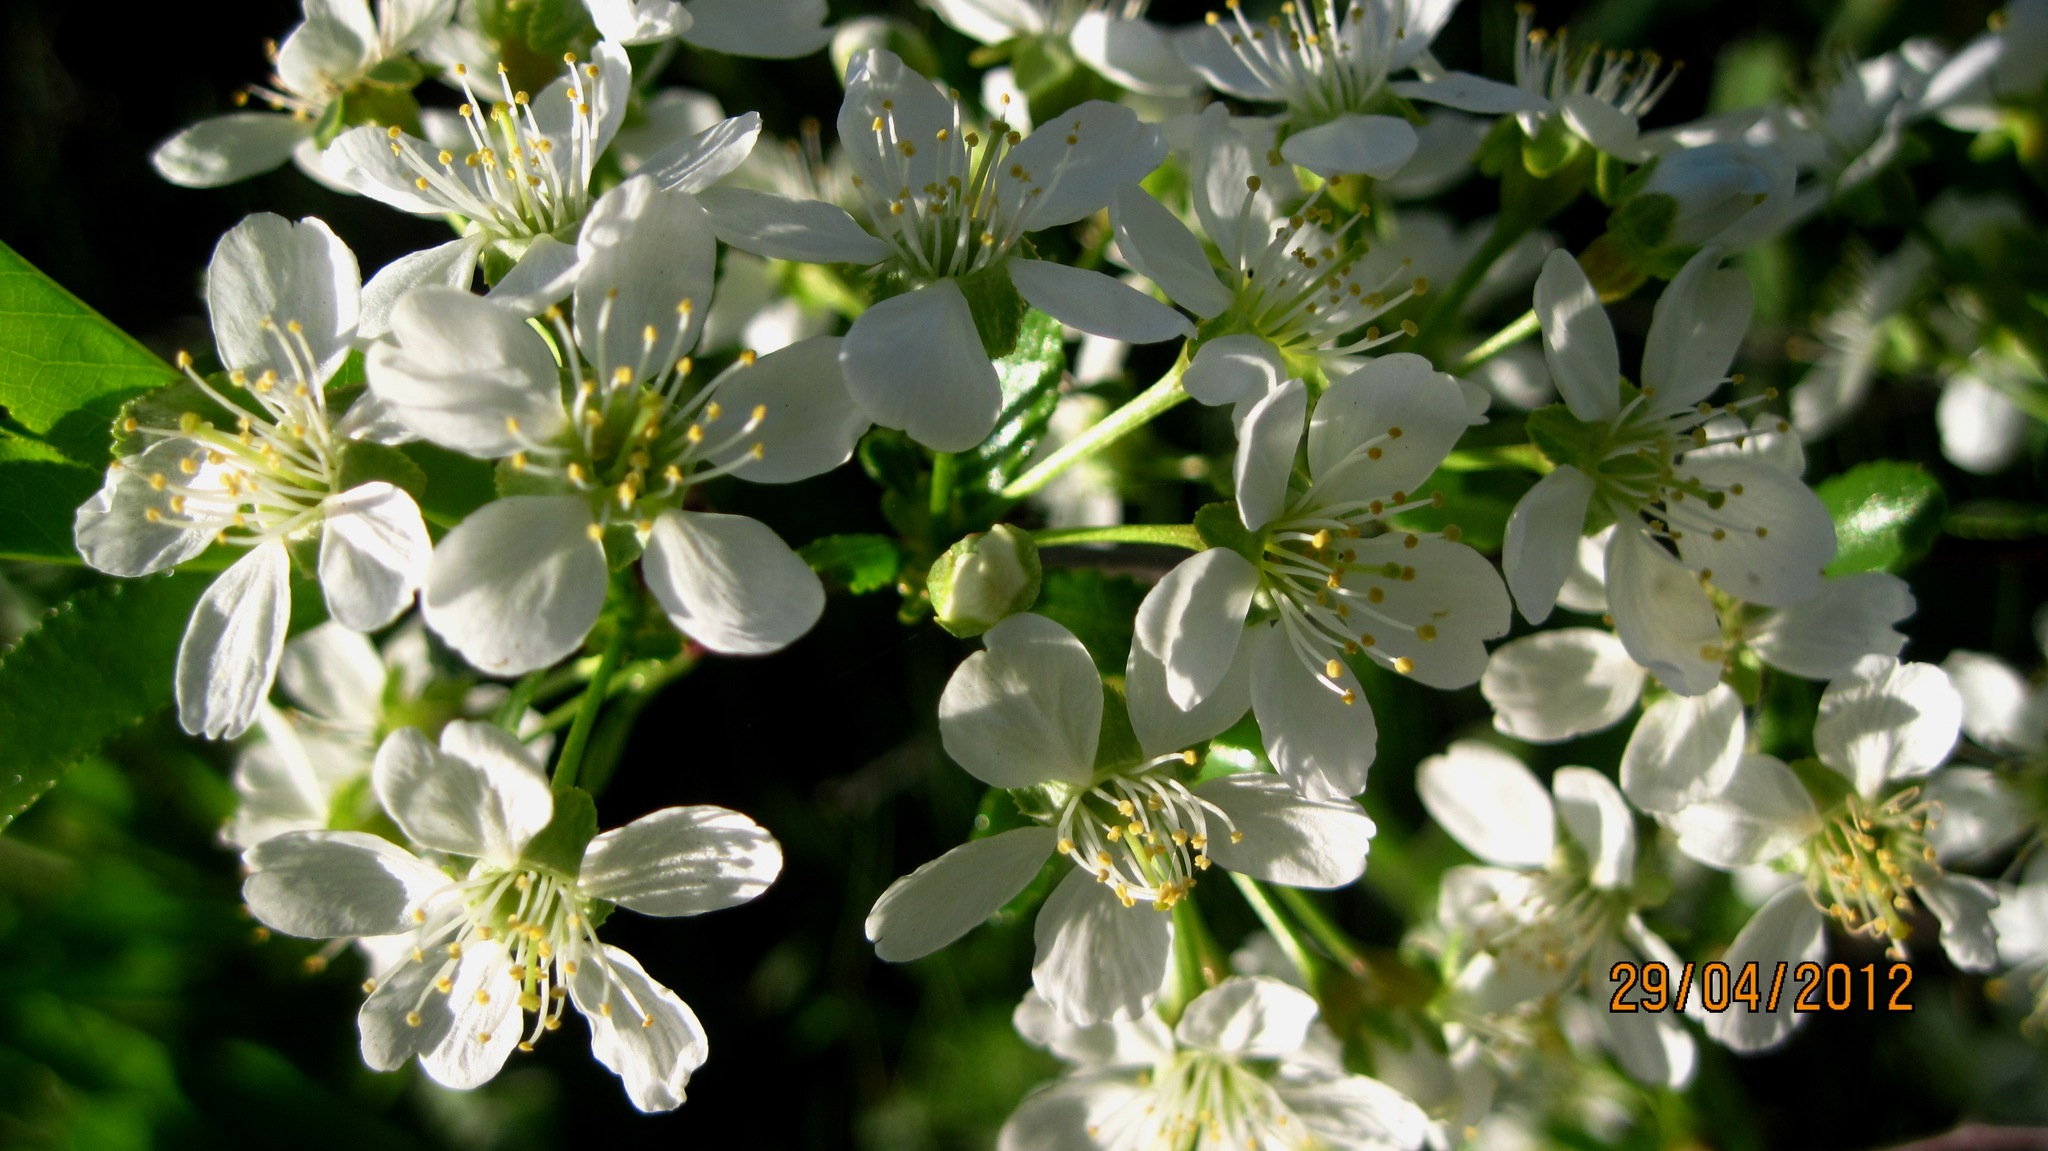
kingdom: Plantae
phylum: Tracheophyta
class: Magnoliopsida
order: Rosales
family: Rosaceae
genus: Prunus
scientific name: Prunus mahaleb
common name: Mahaleb cherry
